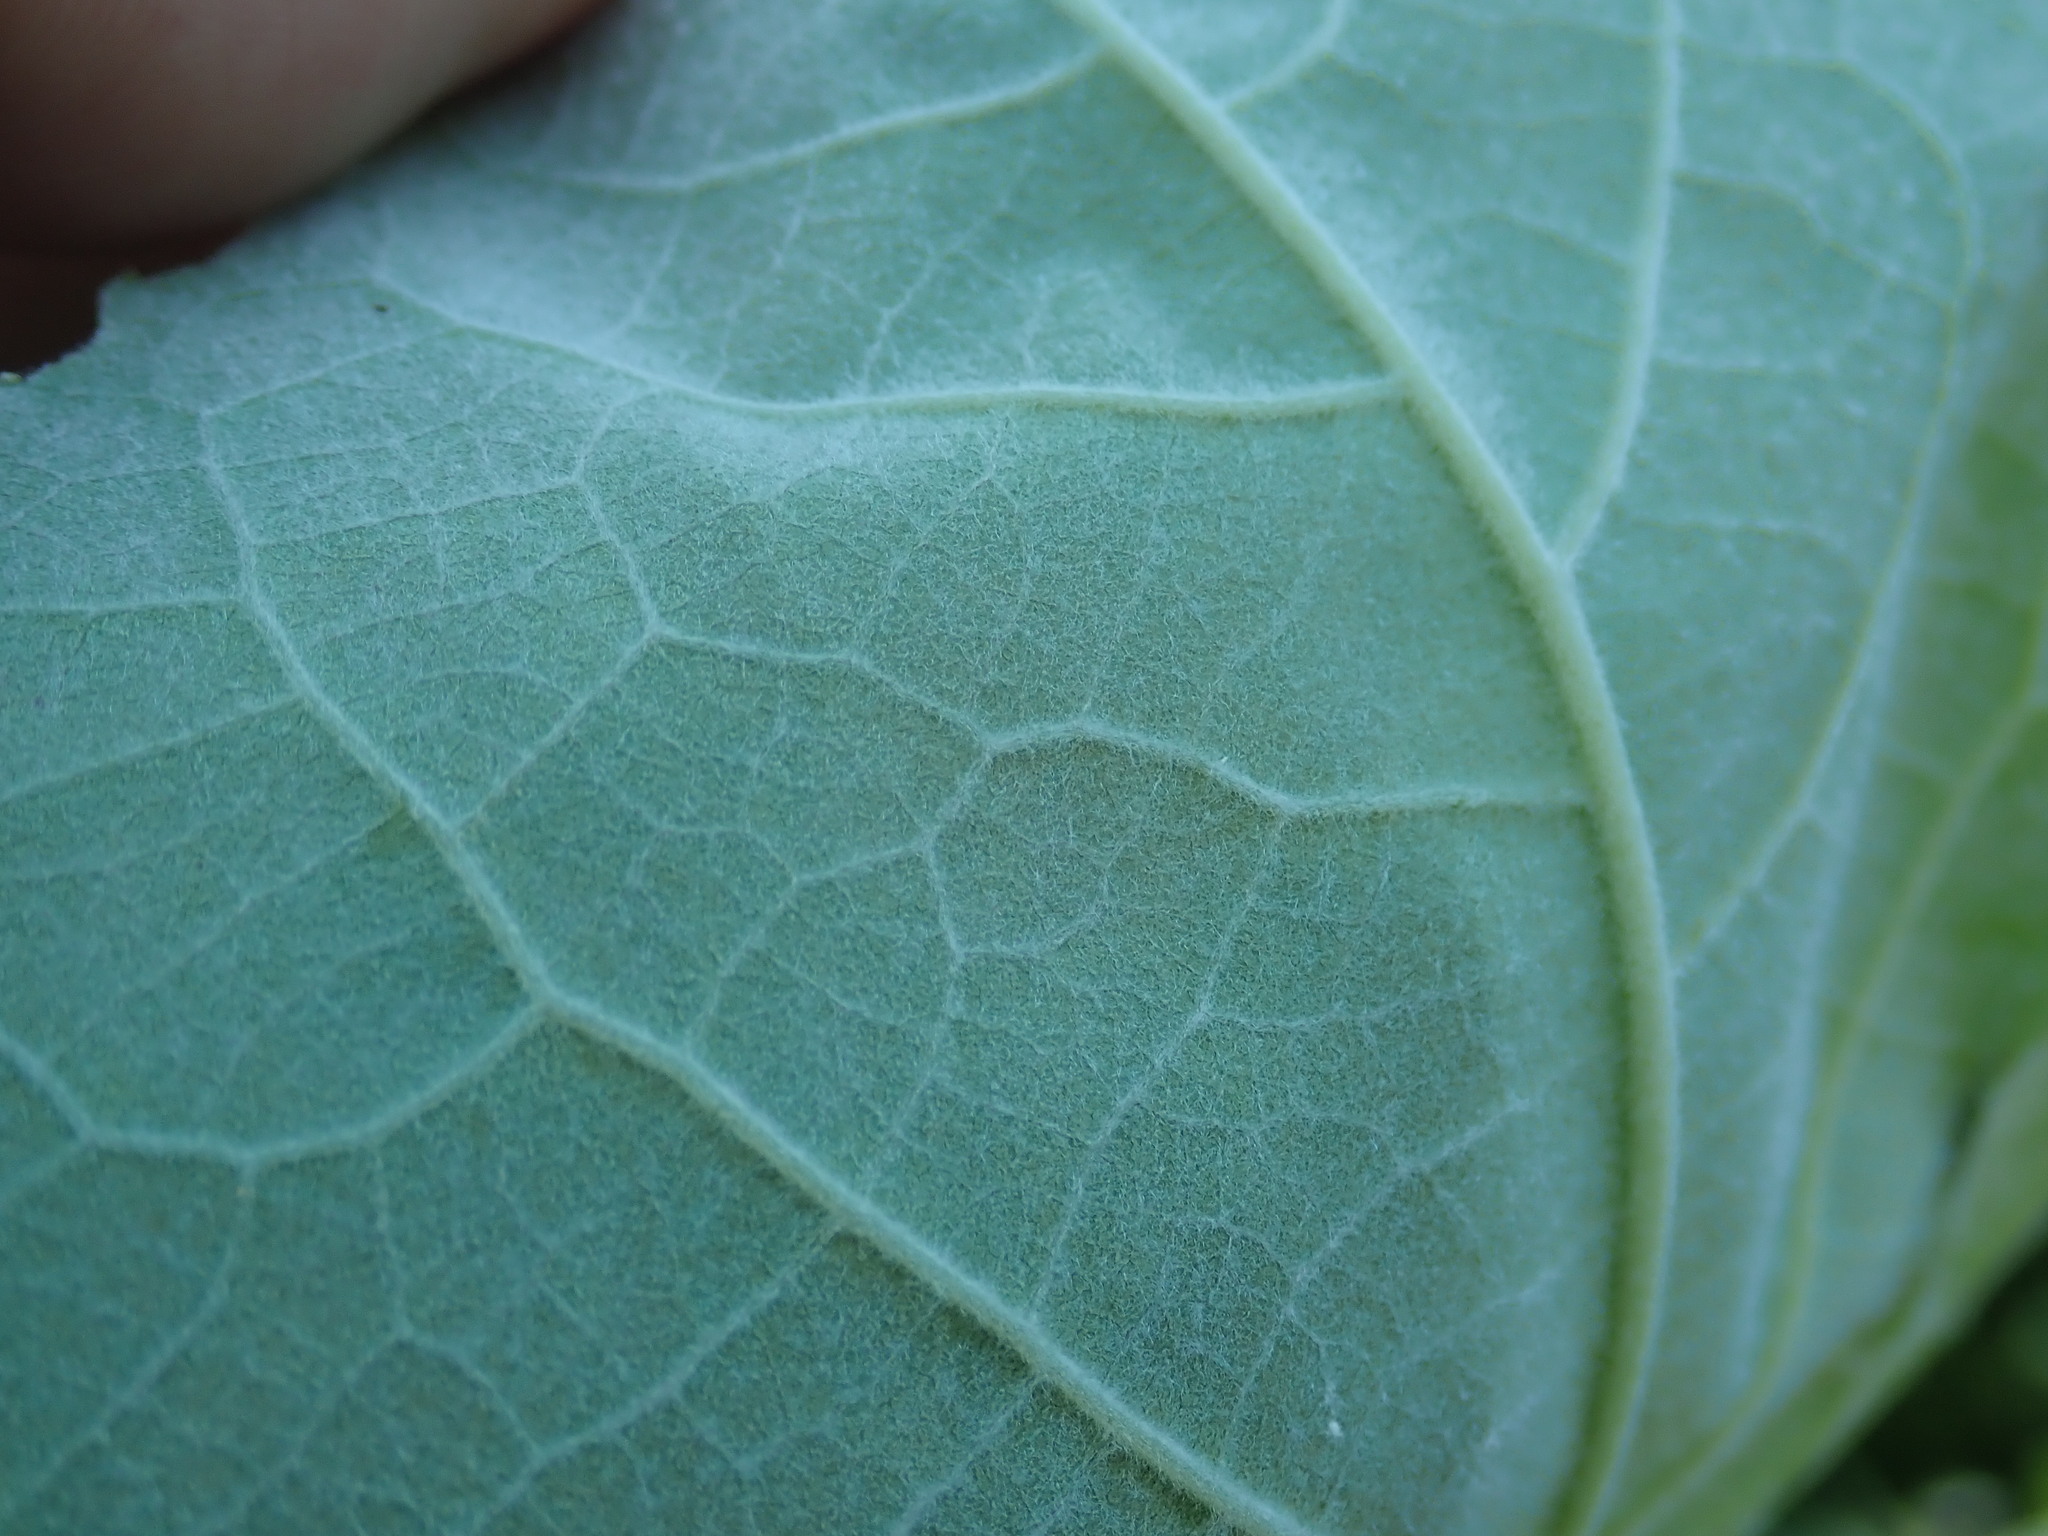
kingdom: Animalia
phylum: Arthropoda
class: Insecta
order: Lepidoptera
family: Gracillariidae
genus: Phyllocnistis
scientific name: Phyllocnistis populiella
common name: Aspen serpentine leafminer moth
